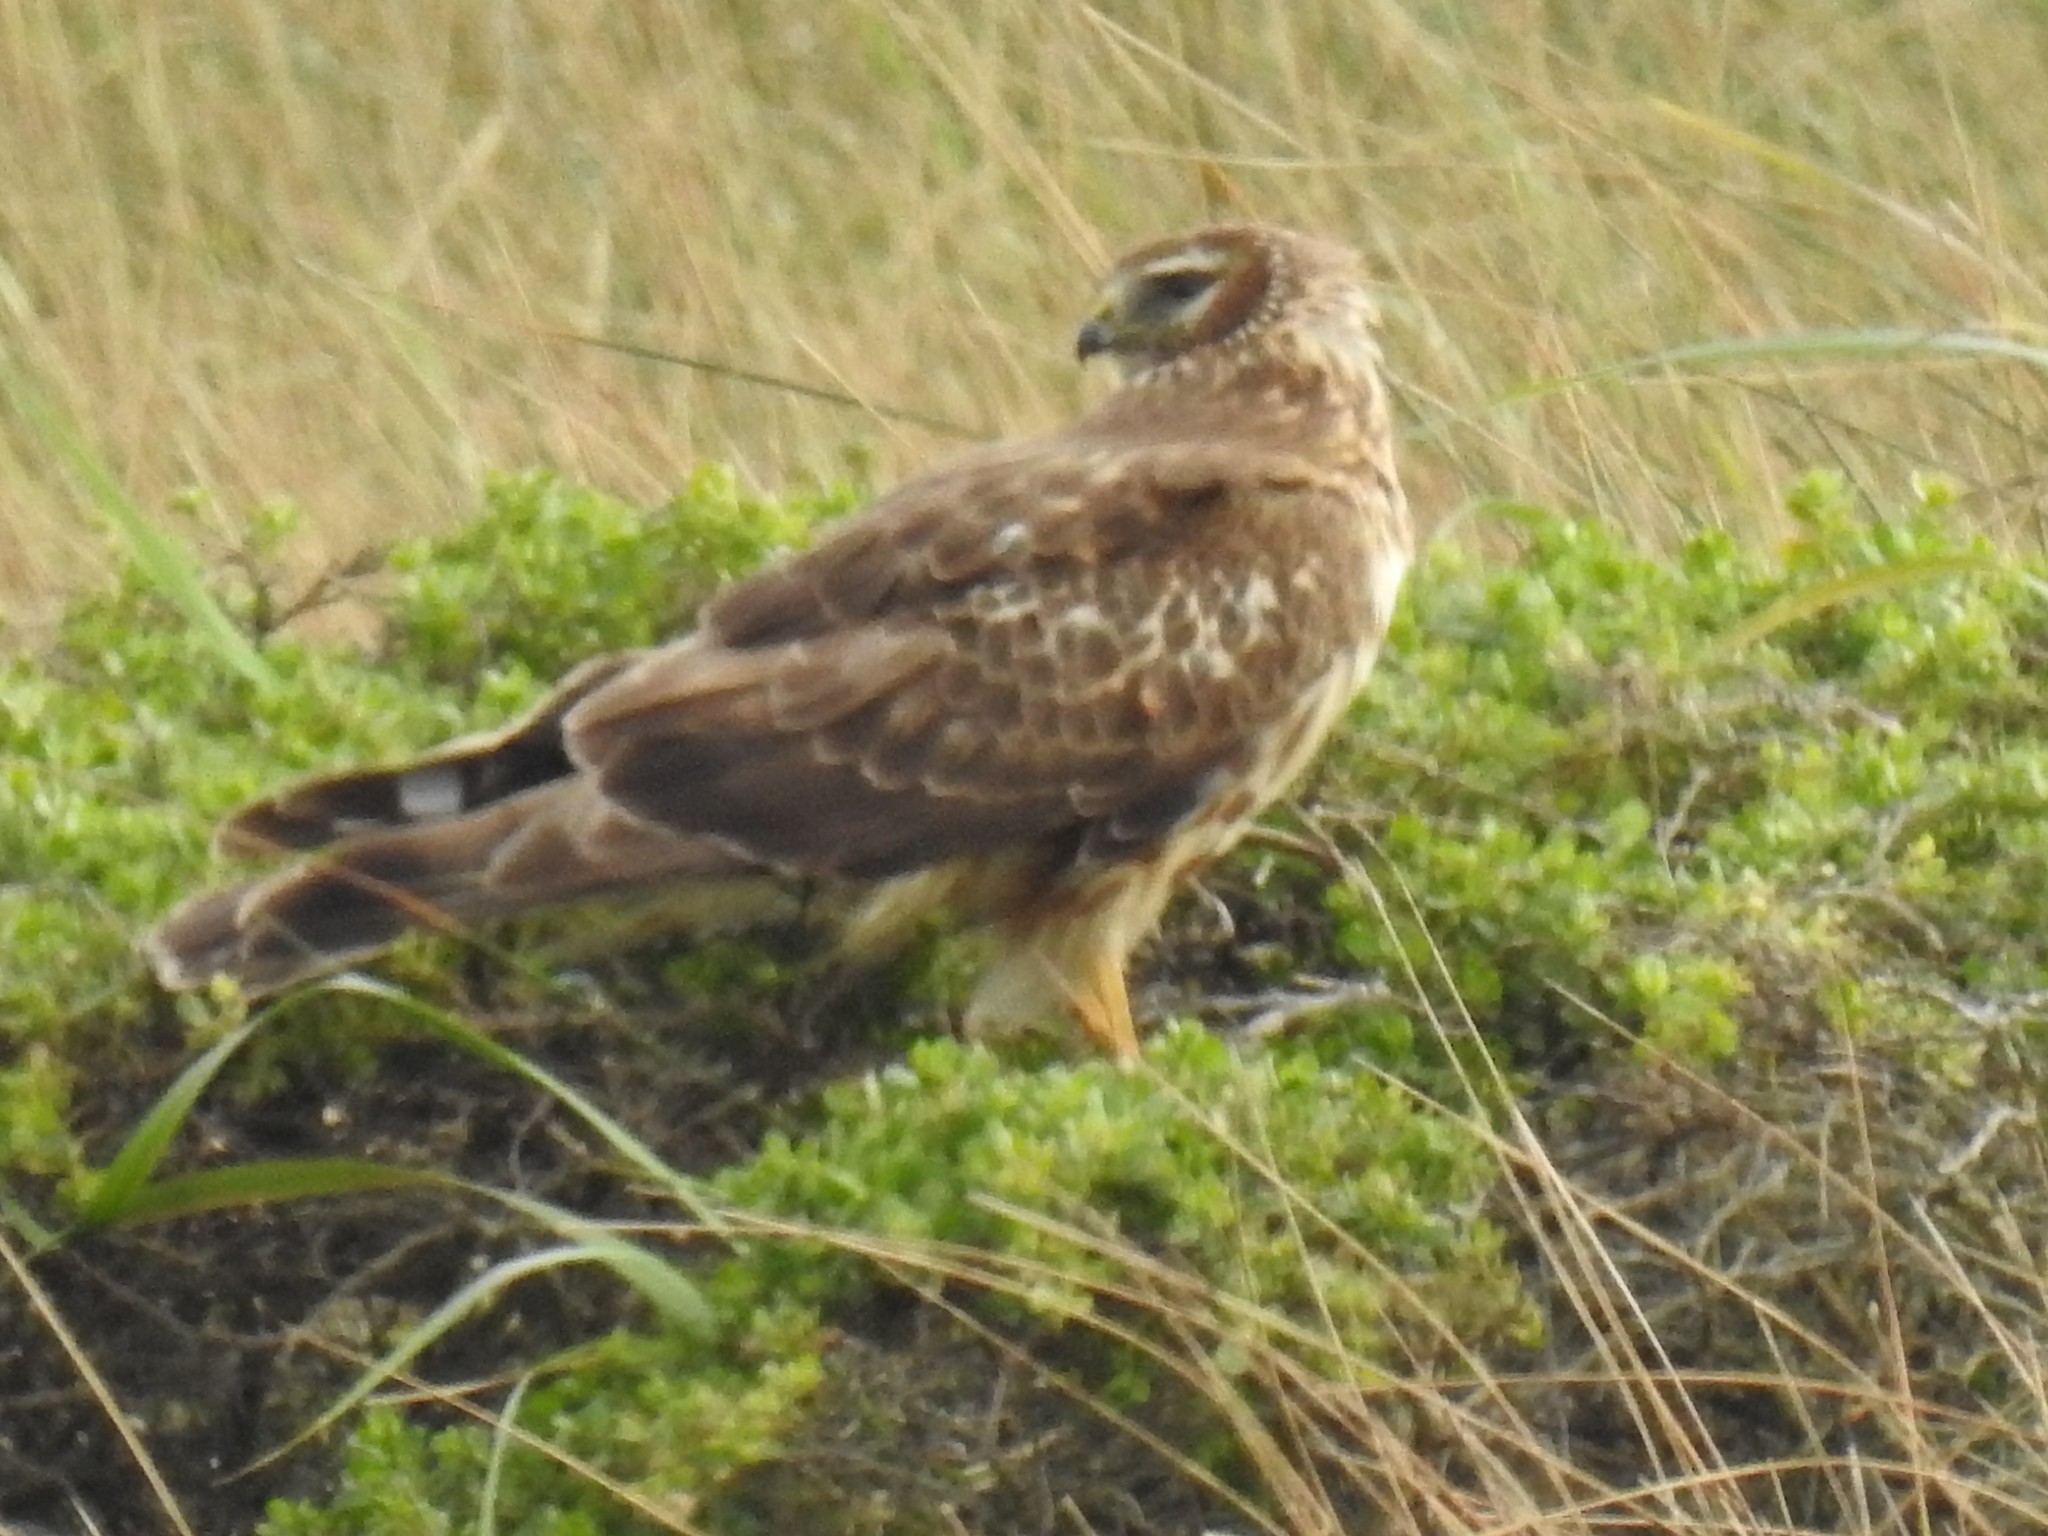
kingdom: Animalia
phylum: Chordata
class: Aves
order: Accipitriformes
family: Accipitridae
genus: Circus
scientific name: Circus cyaneus
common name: Hen harrier
